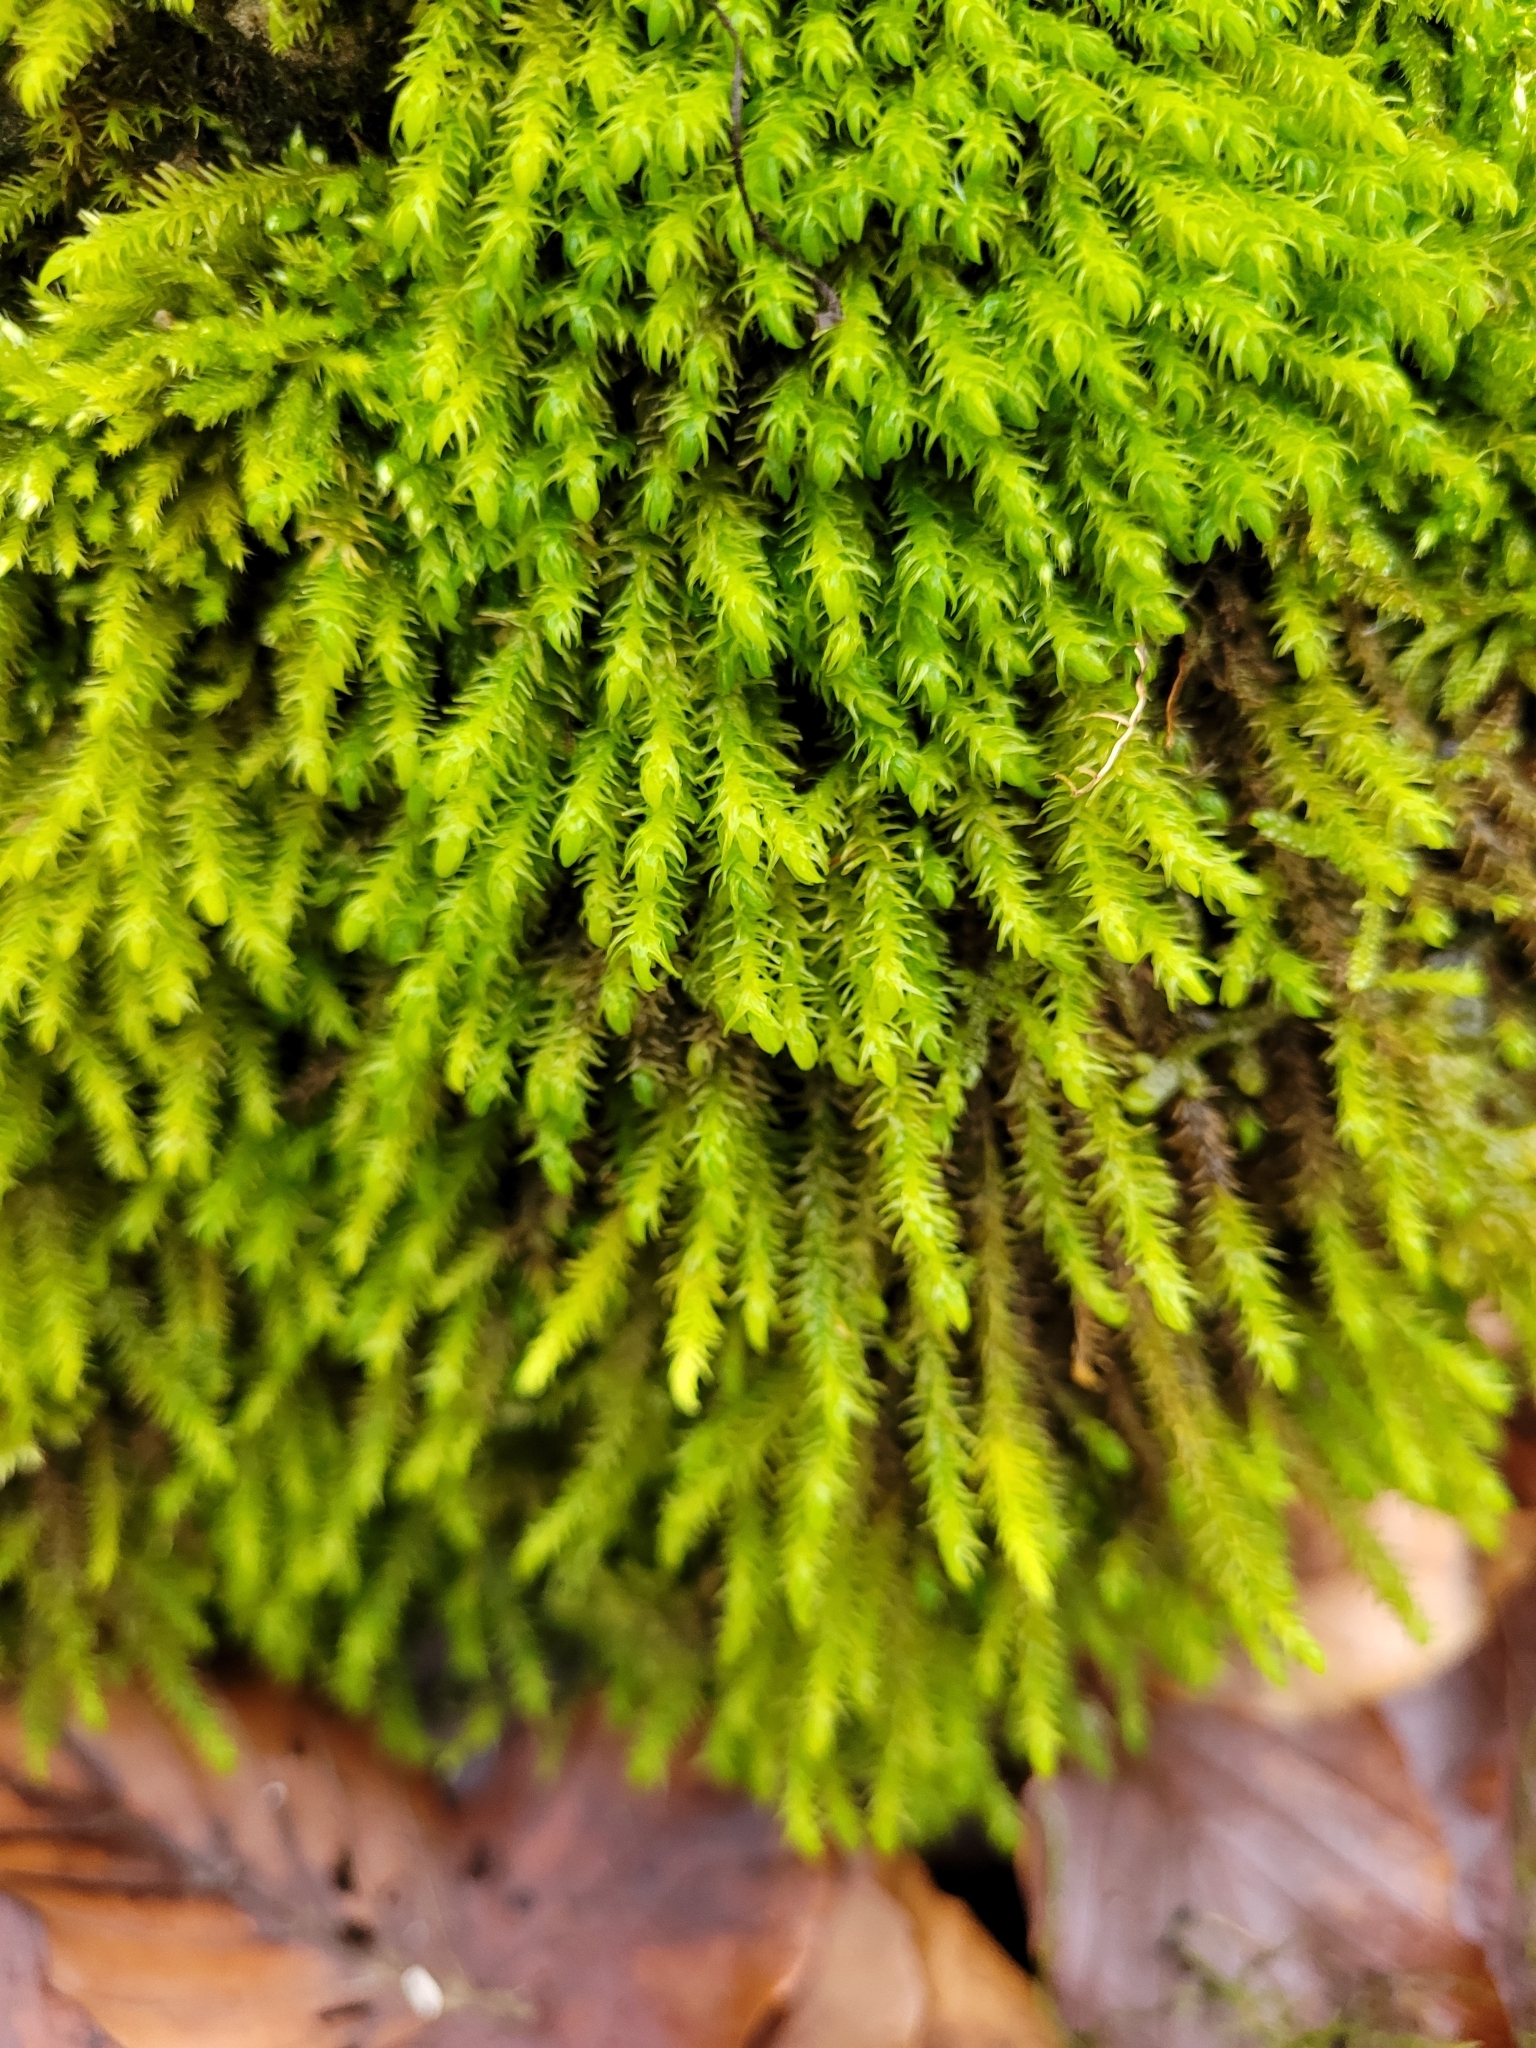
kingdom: Plantae
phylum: Bryophyta
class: Bryopsida
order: Hypnales
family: Anomodontaceae
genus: Anomodon
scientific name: Anomodon viticulosus
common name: Tall anomodon
